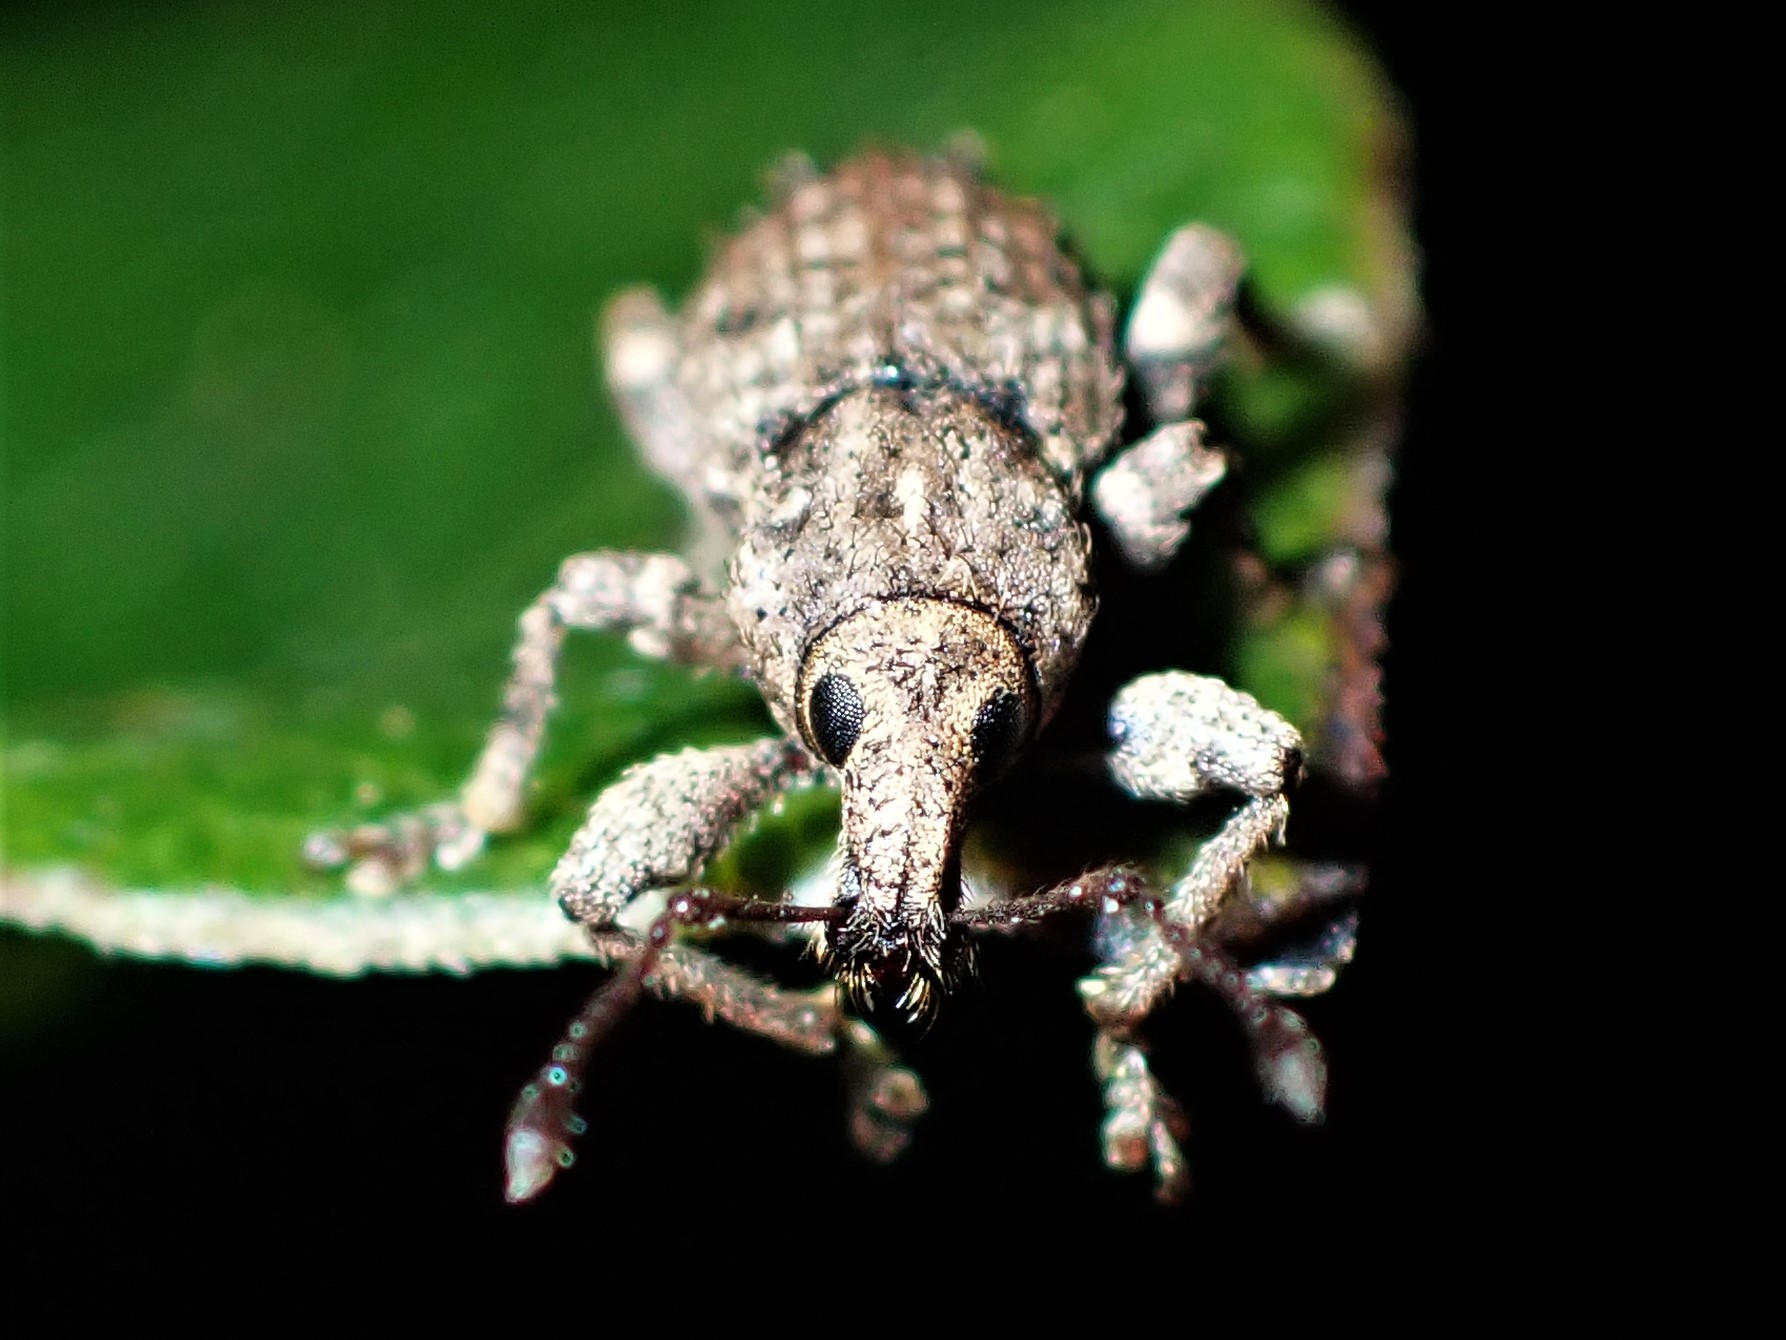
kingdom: Animalia
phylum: Arthropoda
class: Insecta
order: Coleoptera
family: Curculionidae
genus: Chalepistes
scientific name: Chalepistes compressus
